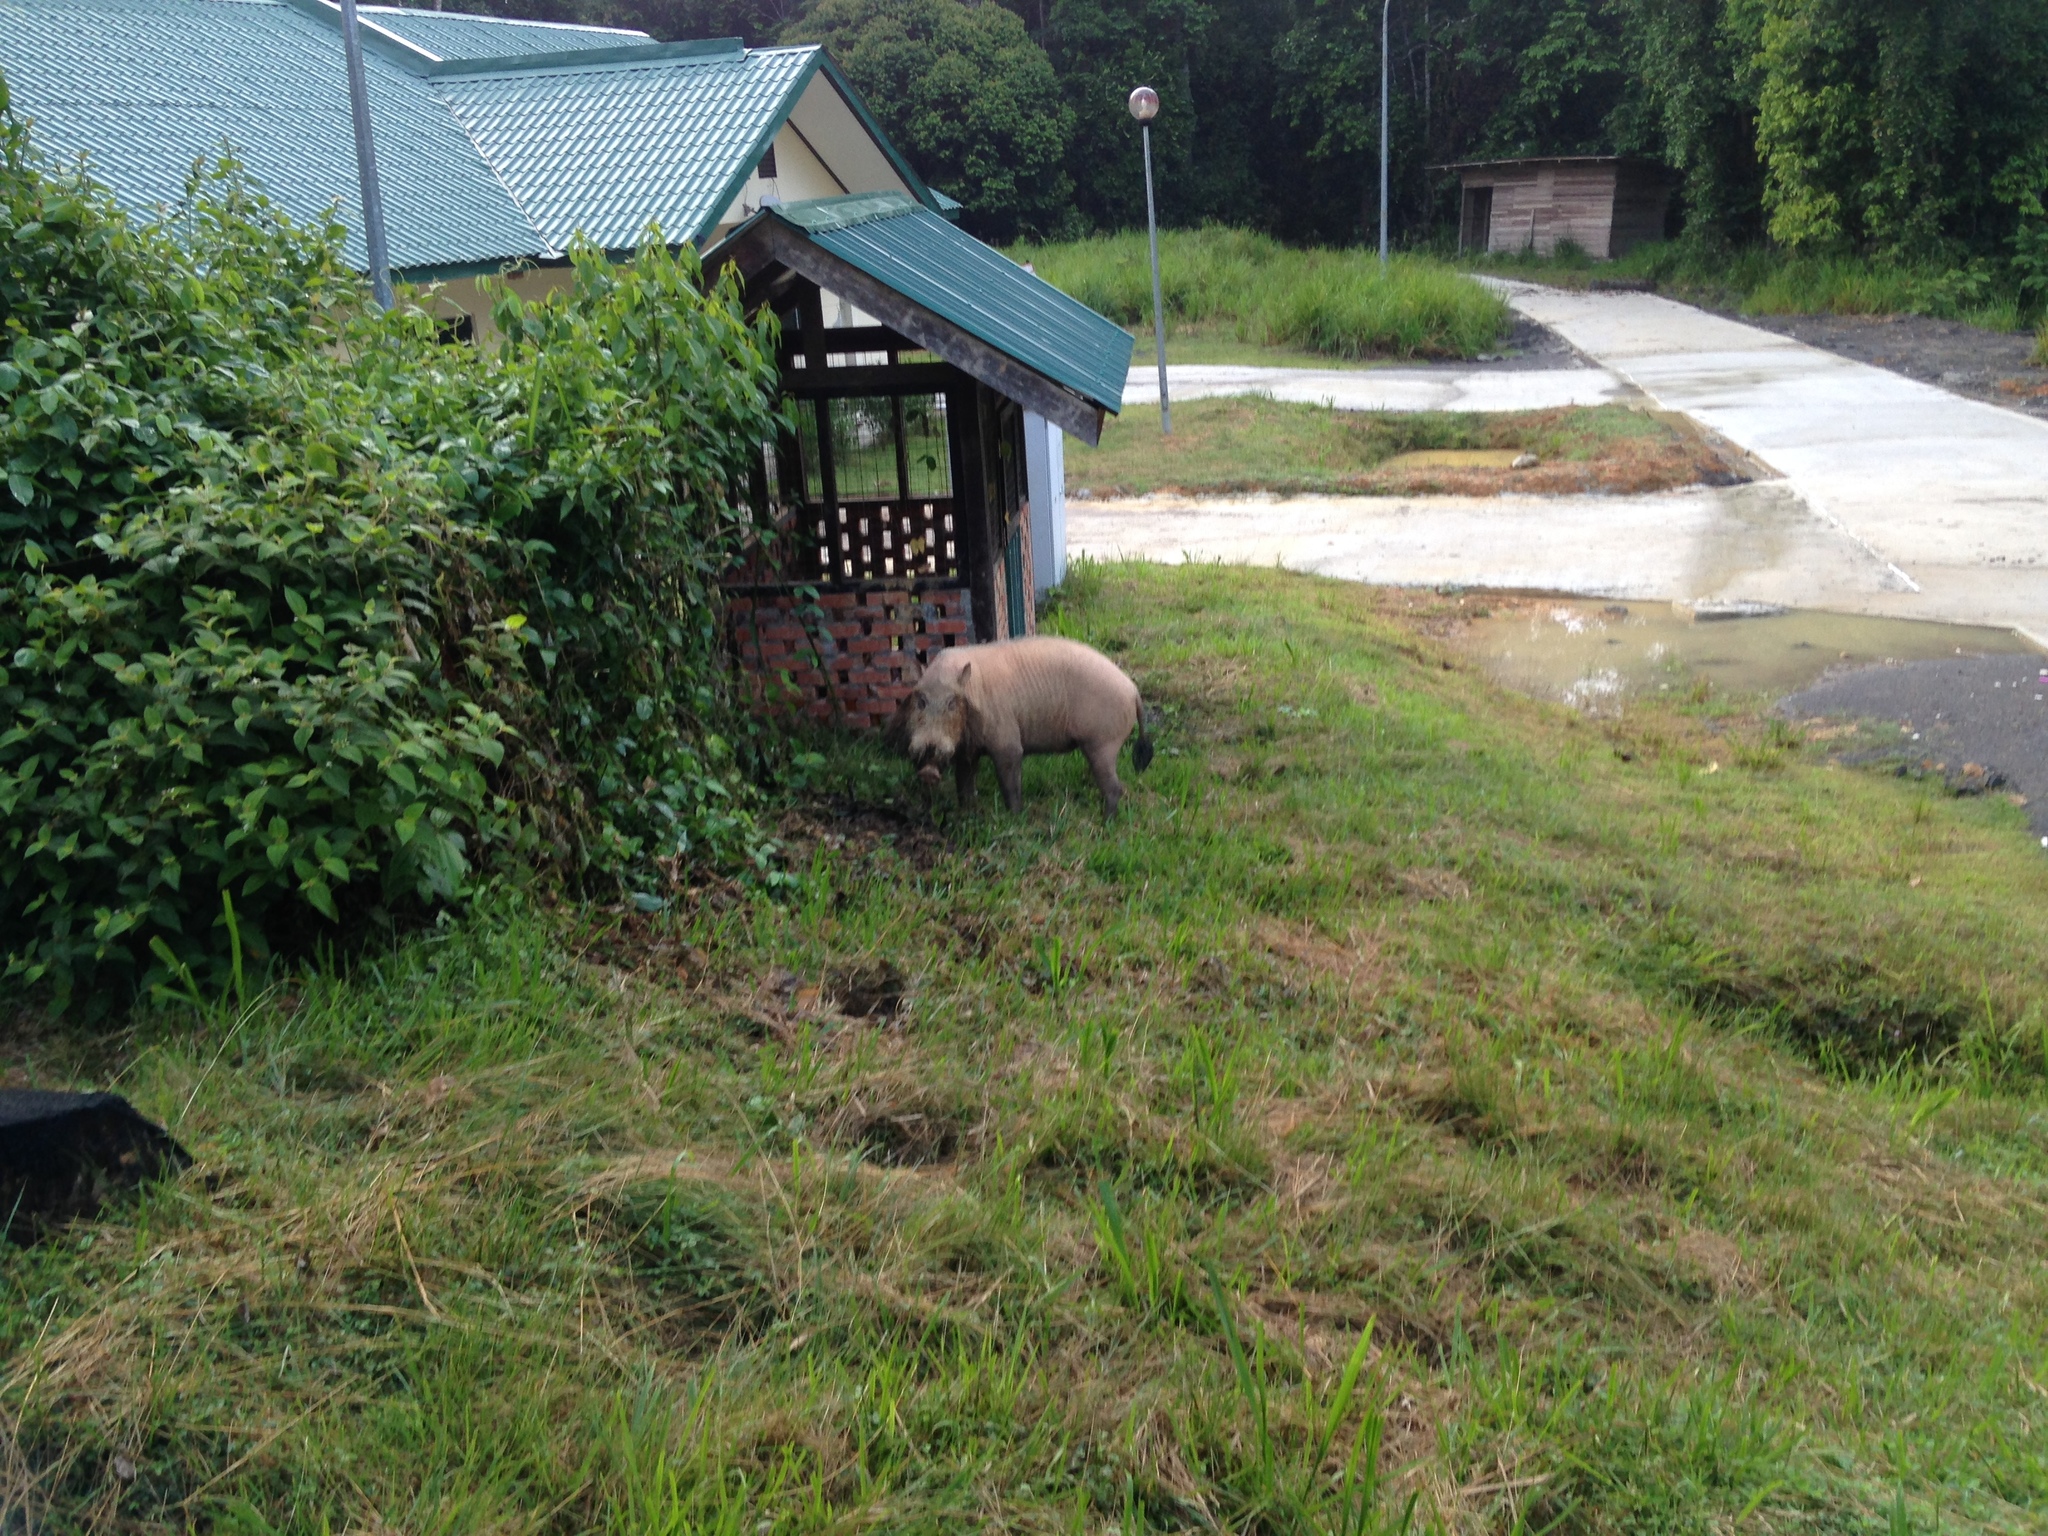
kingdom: Animalia
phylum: Chordata
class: Mammalia
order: Artiodactyla
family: Suidae
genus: Sus
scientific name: Sus barbatus
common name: Bearded pig
